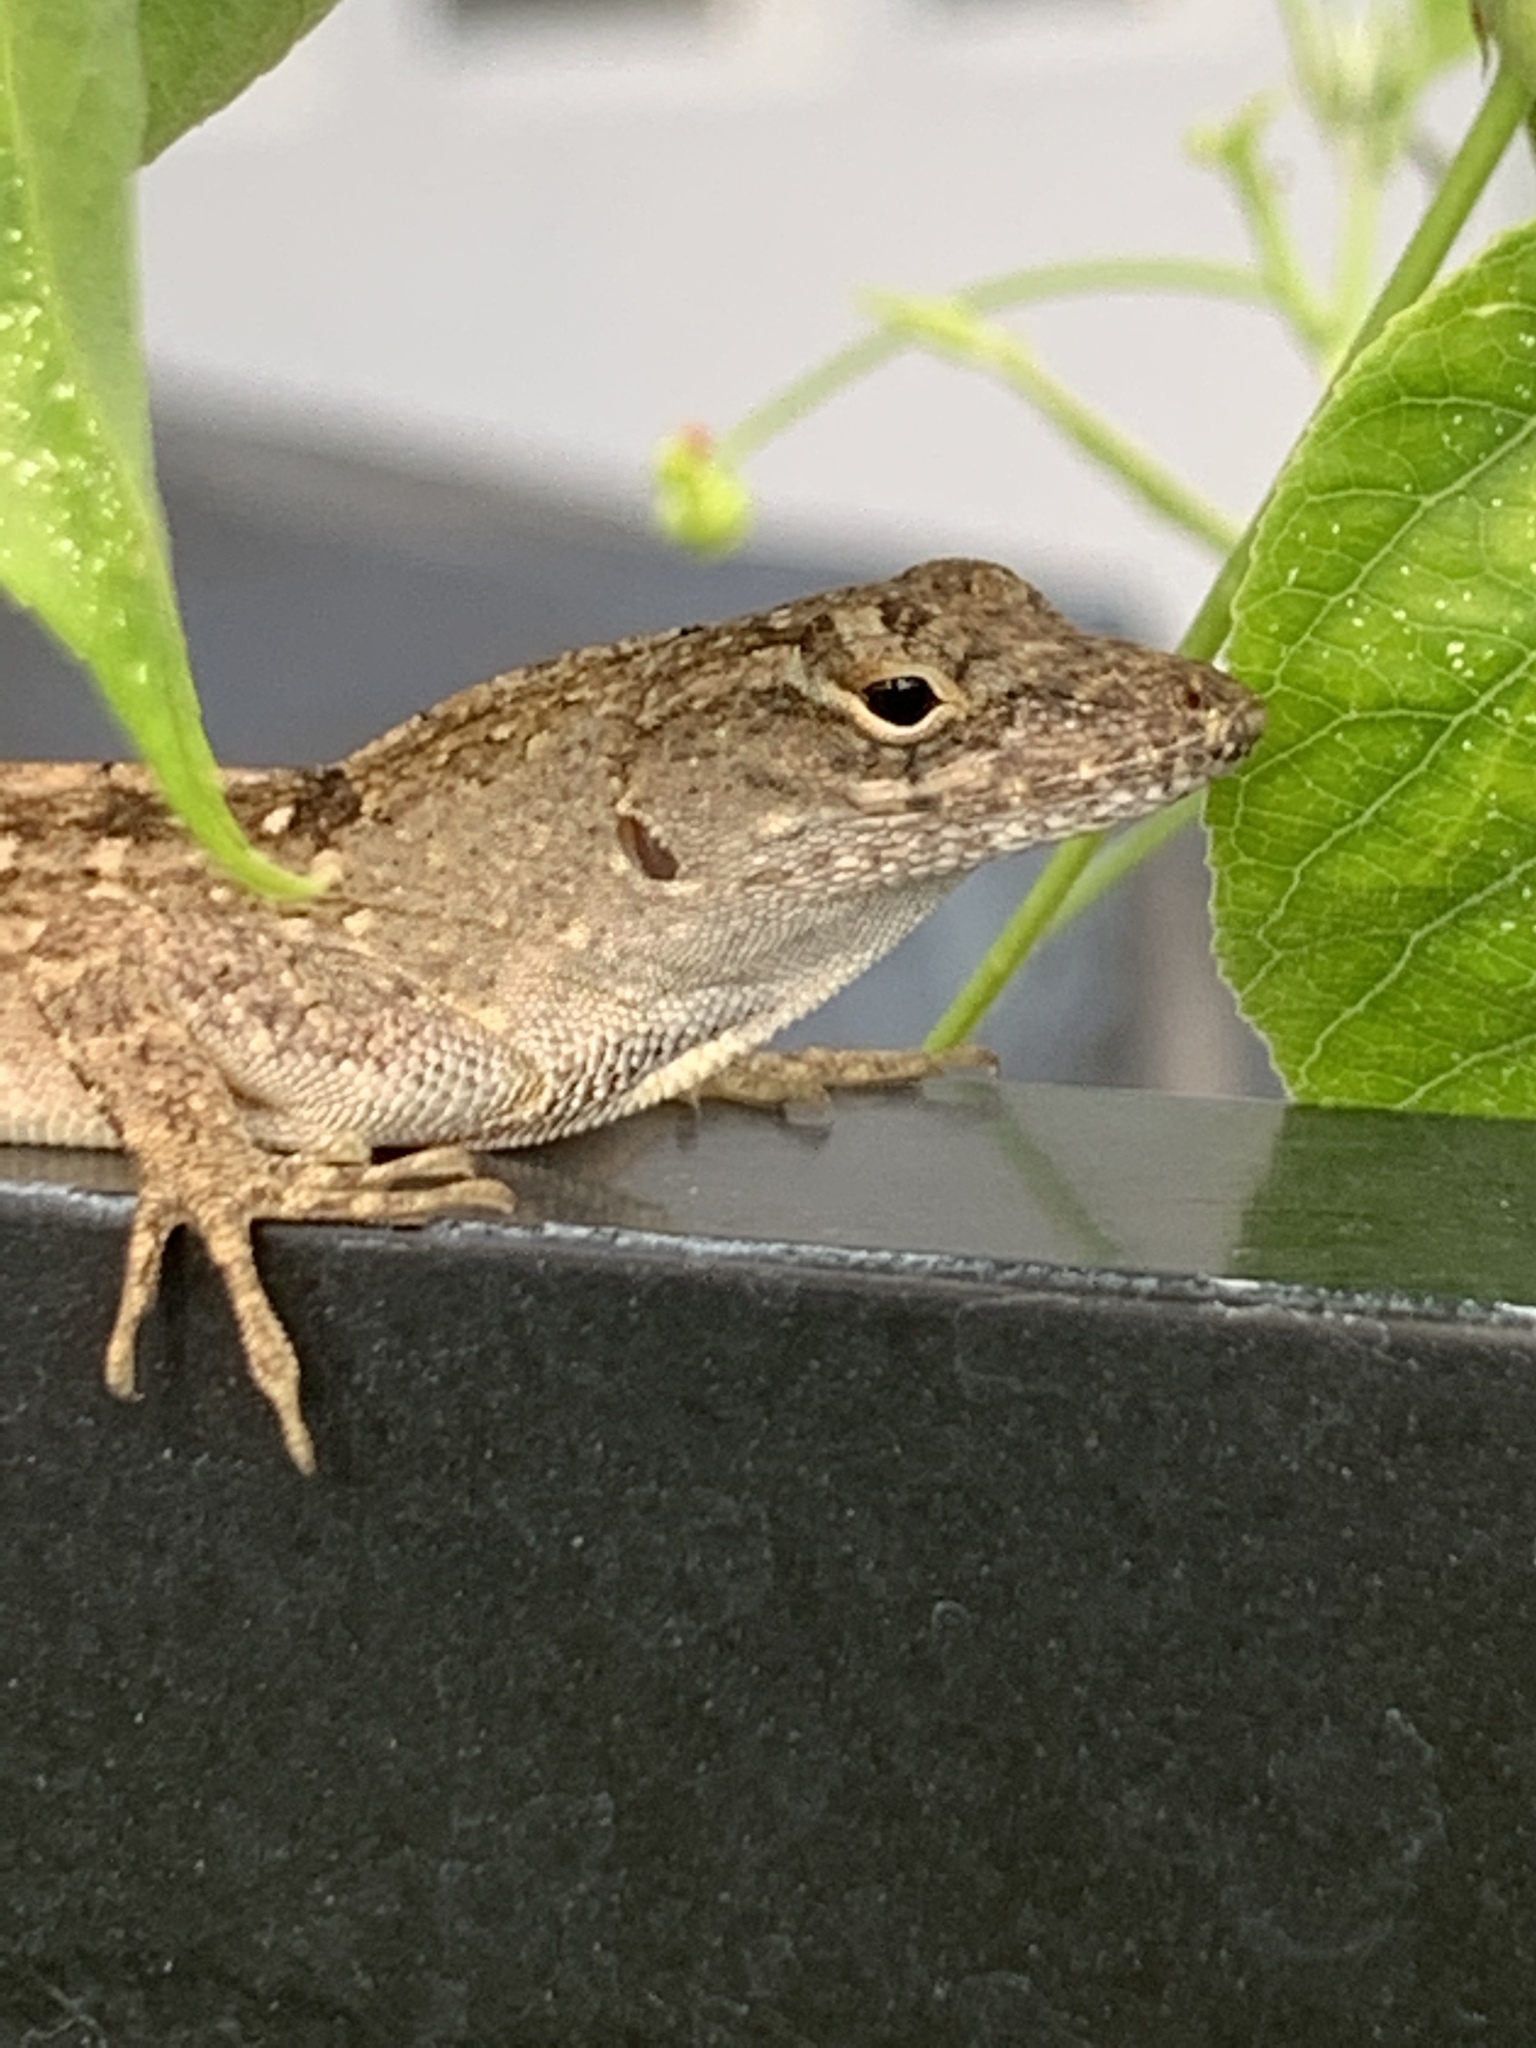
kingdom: Animalia
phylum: Chordata
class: Squamata
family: Dactyloidae
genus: Anolis
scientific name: Anolis sagrei
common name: Brown anole
